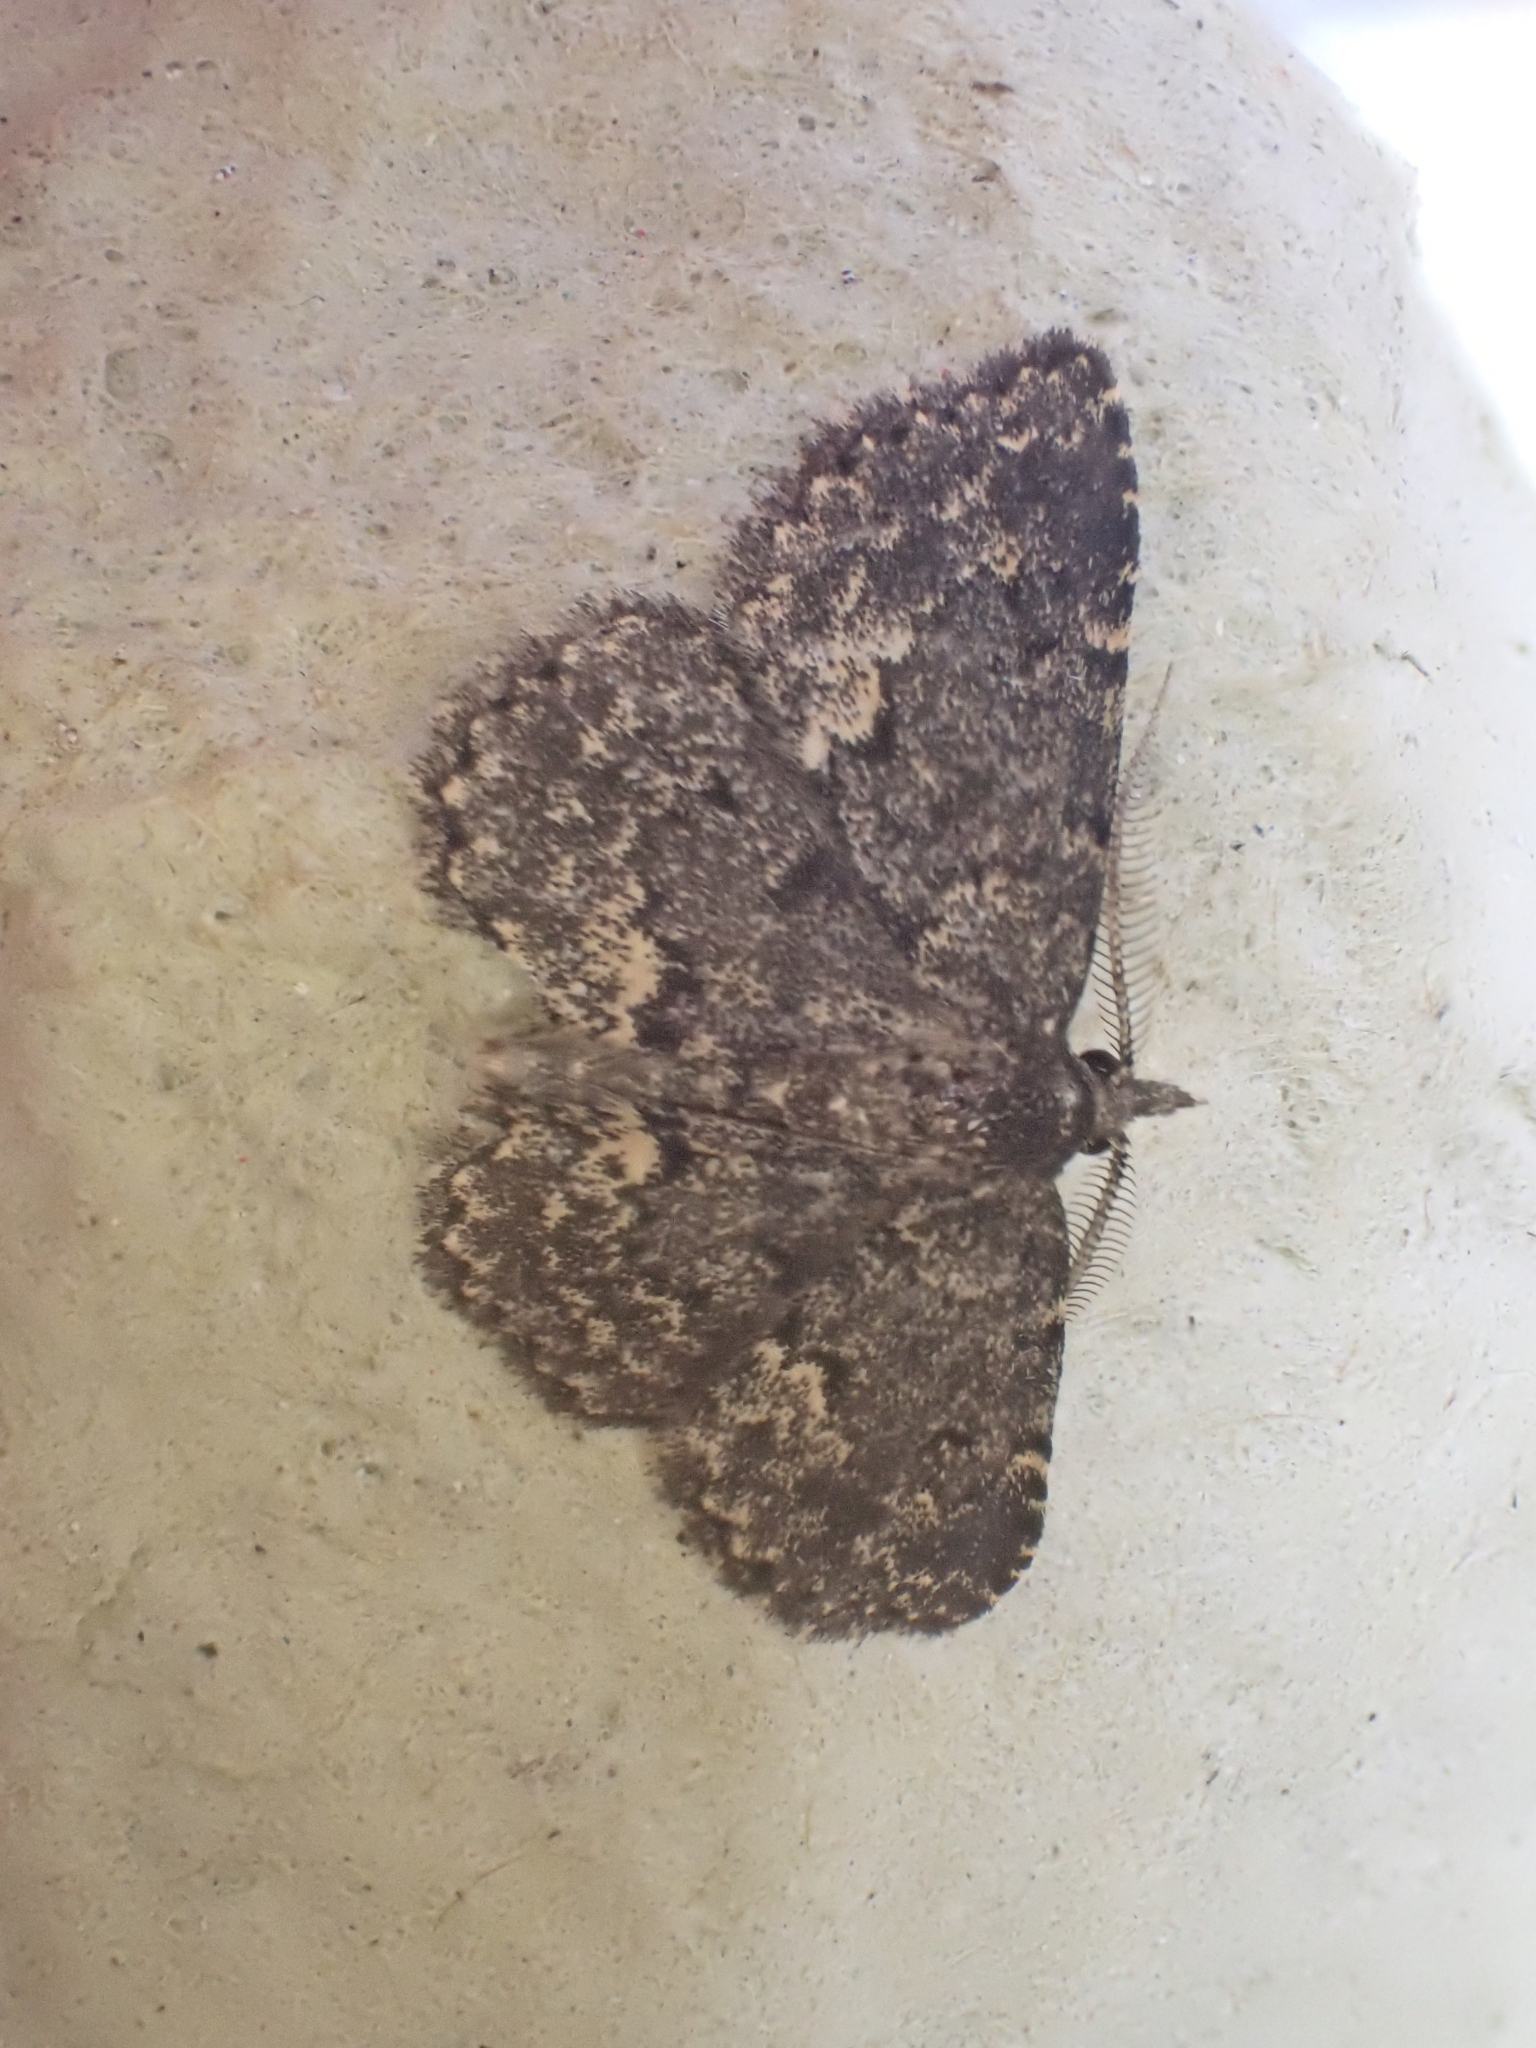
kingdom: Animalia
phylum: Arthropoda
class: Insecta
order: Lepidoptera
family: Erebidae
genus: Parascotia
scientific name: Parascotia fuliginaria
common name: Waved black
